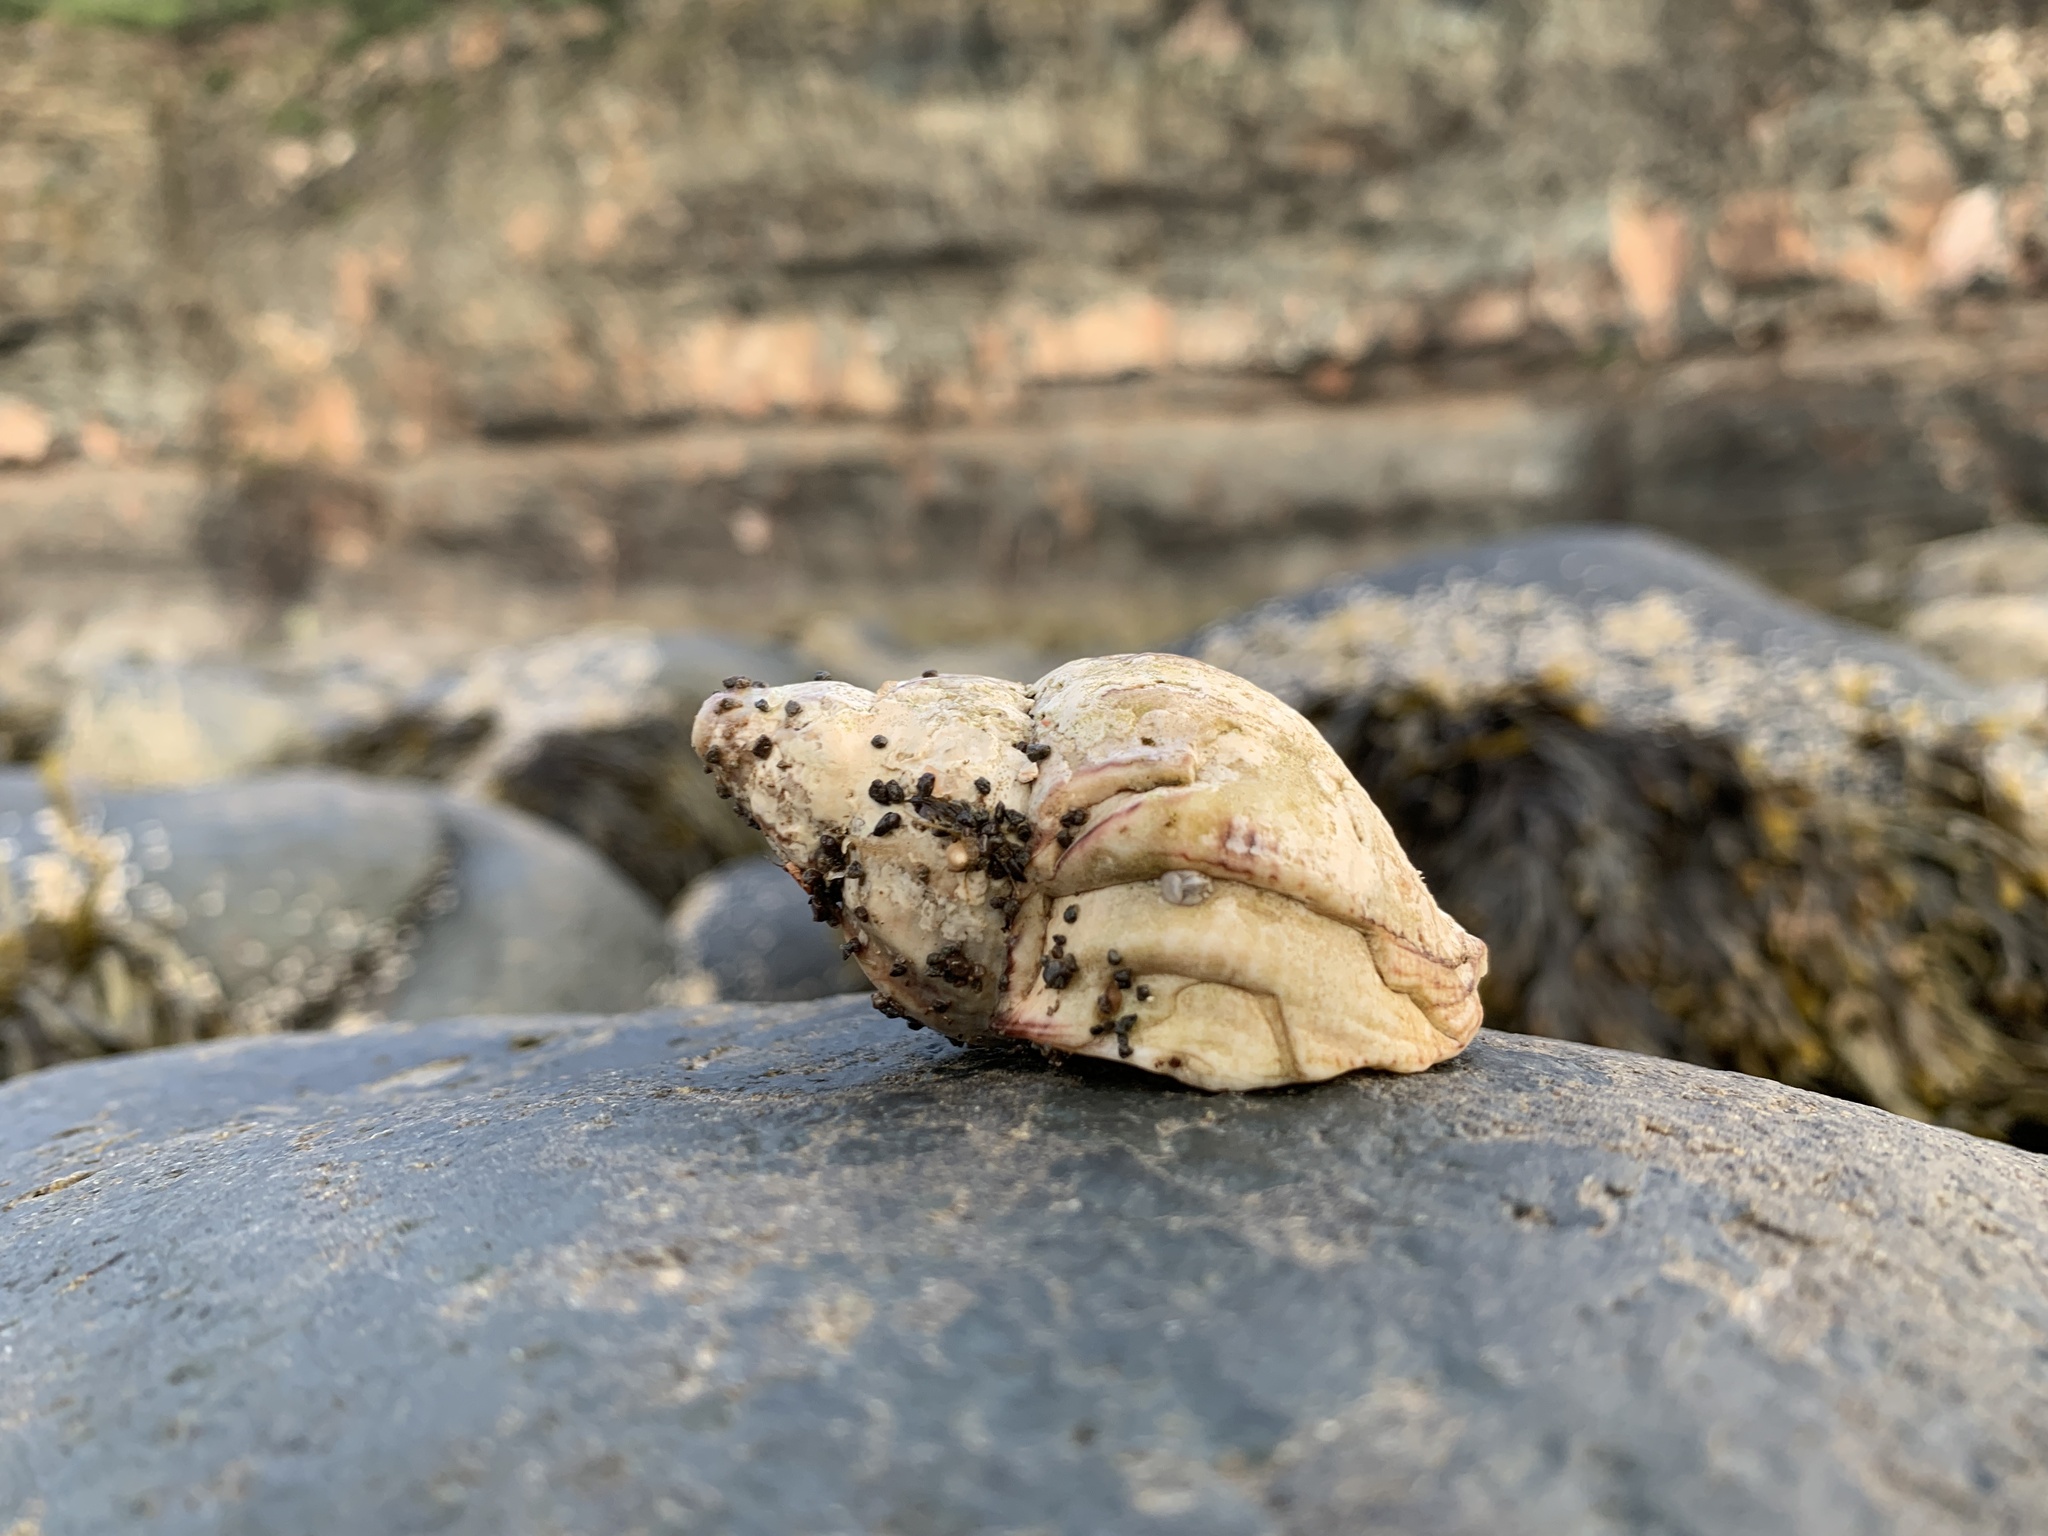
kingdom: Animalia
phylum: Mollusca
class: Gastropoda
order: Neogastropoda
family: Buccinidae
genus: Buccinum
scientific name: Buccinum undatum
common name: Common whelk
